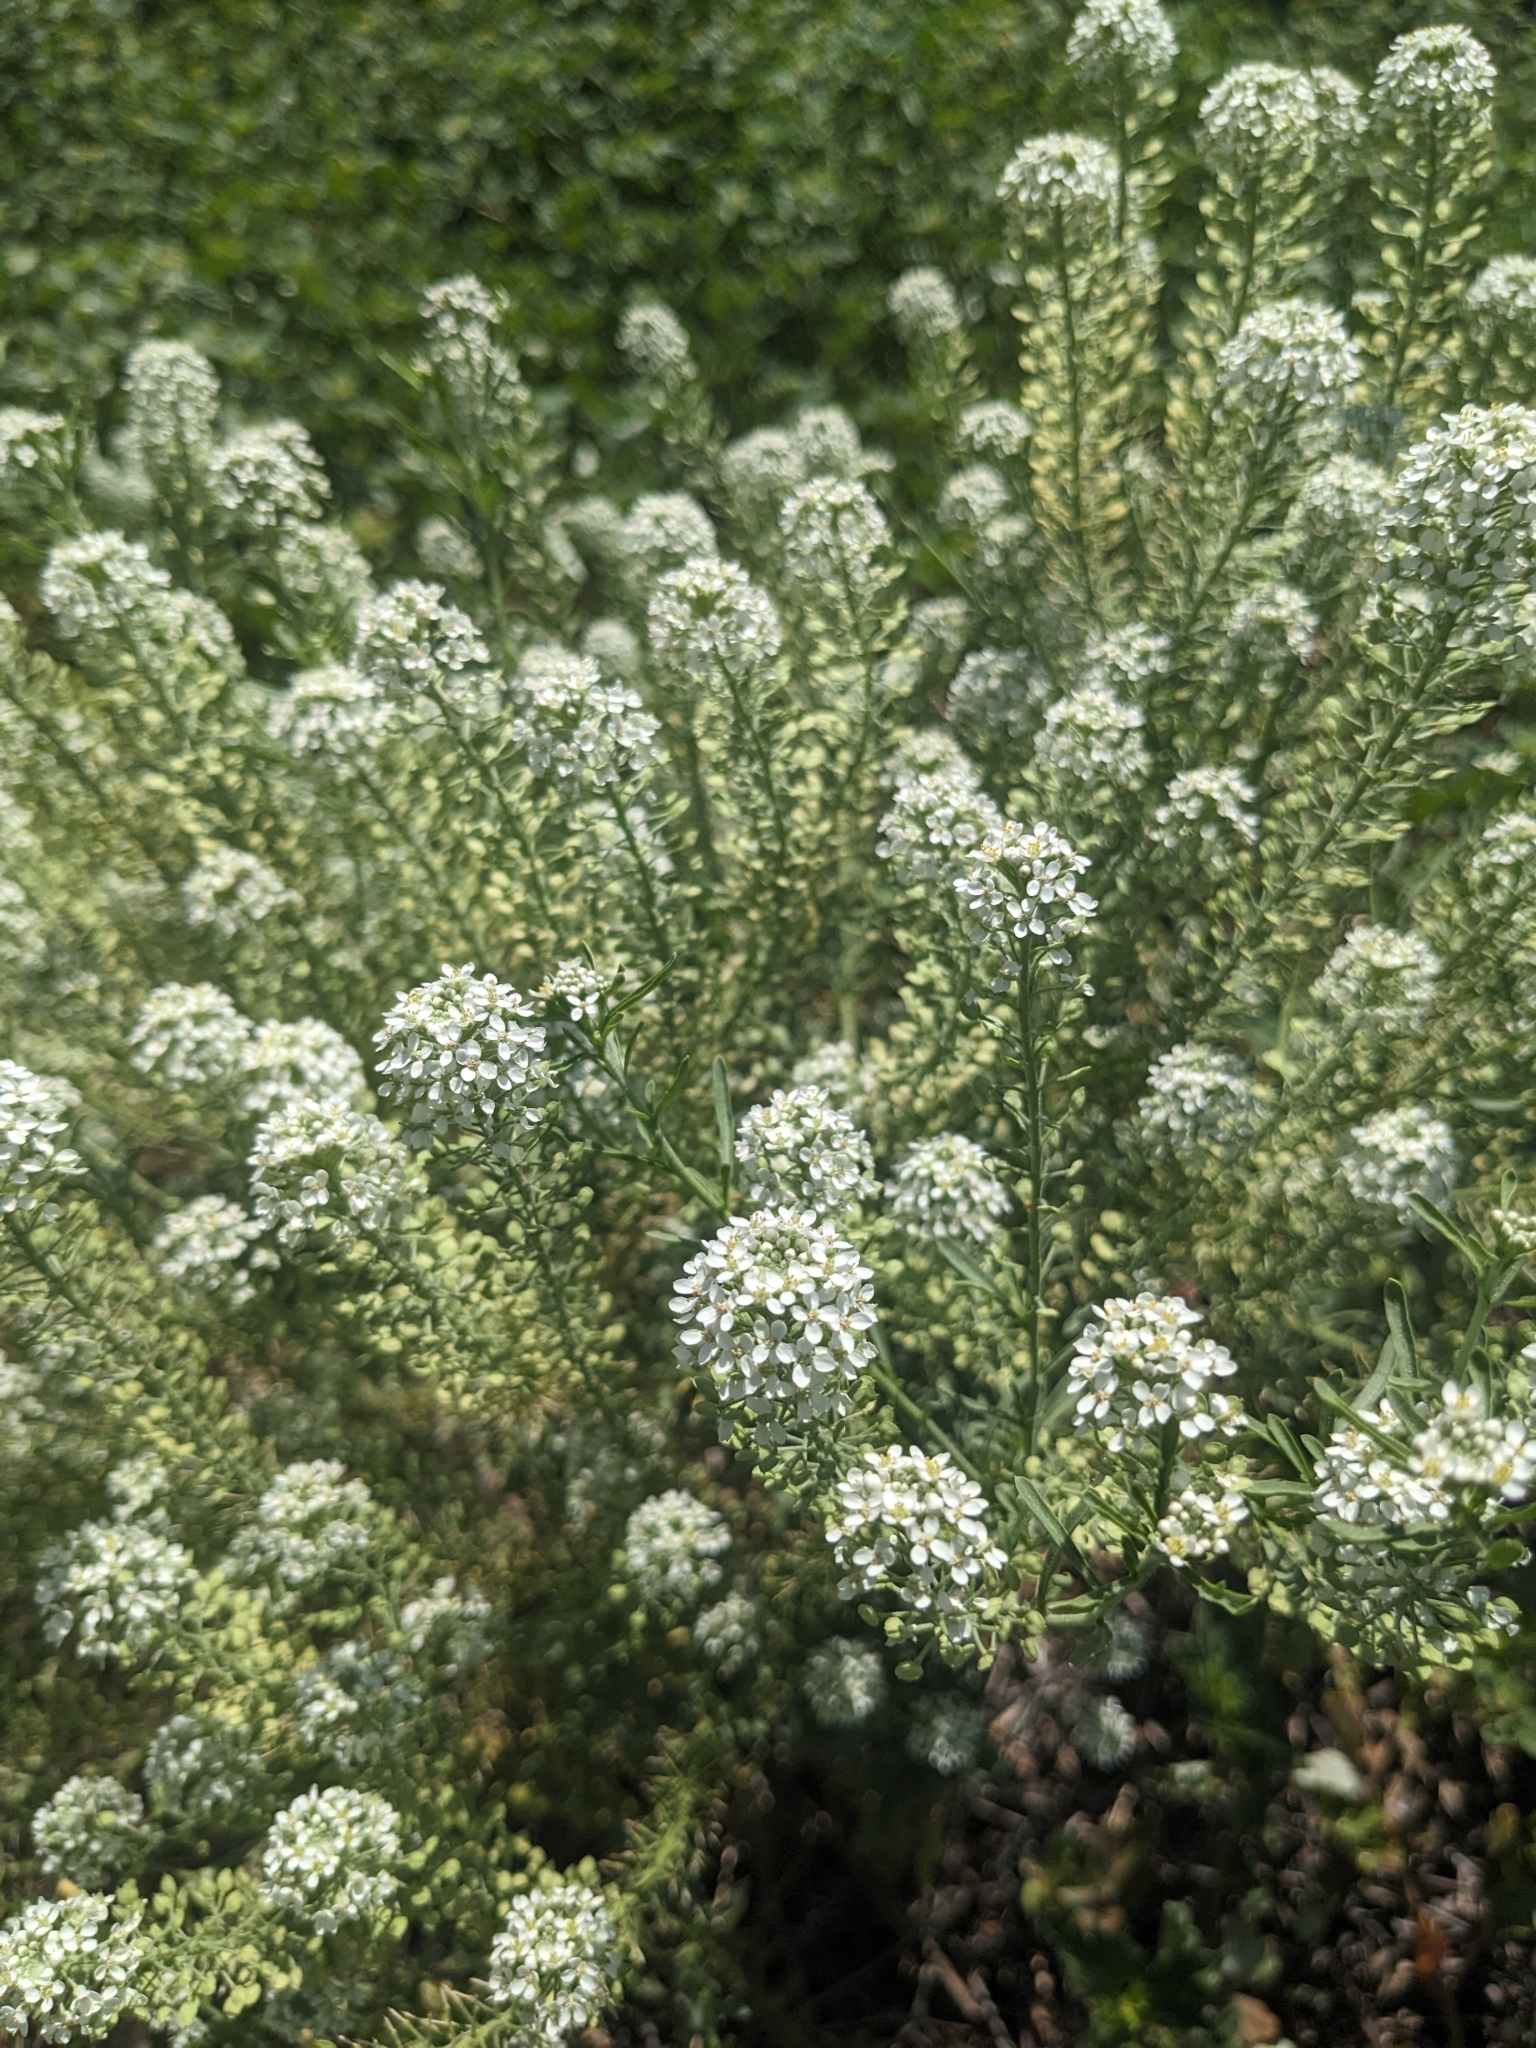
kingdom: Plantae
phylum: Tracheophyta
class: Magnoliopsida
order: Brassicales
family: Brassicaceae
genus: Lepidium
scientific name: Lepidium thurberi
